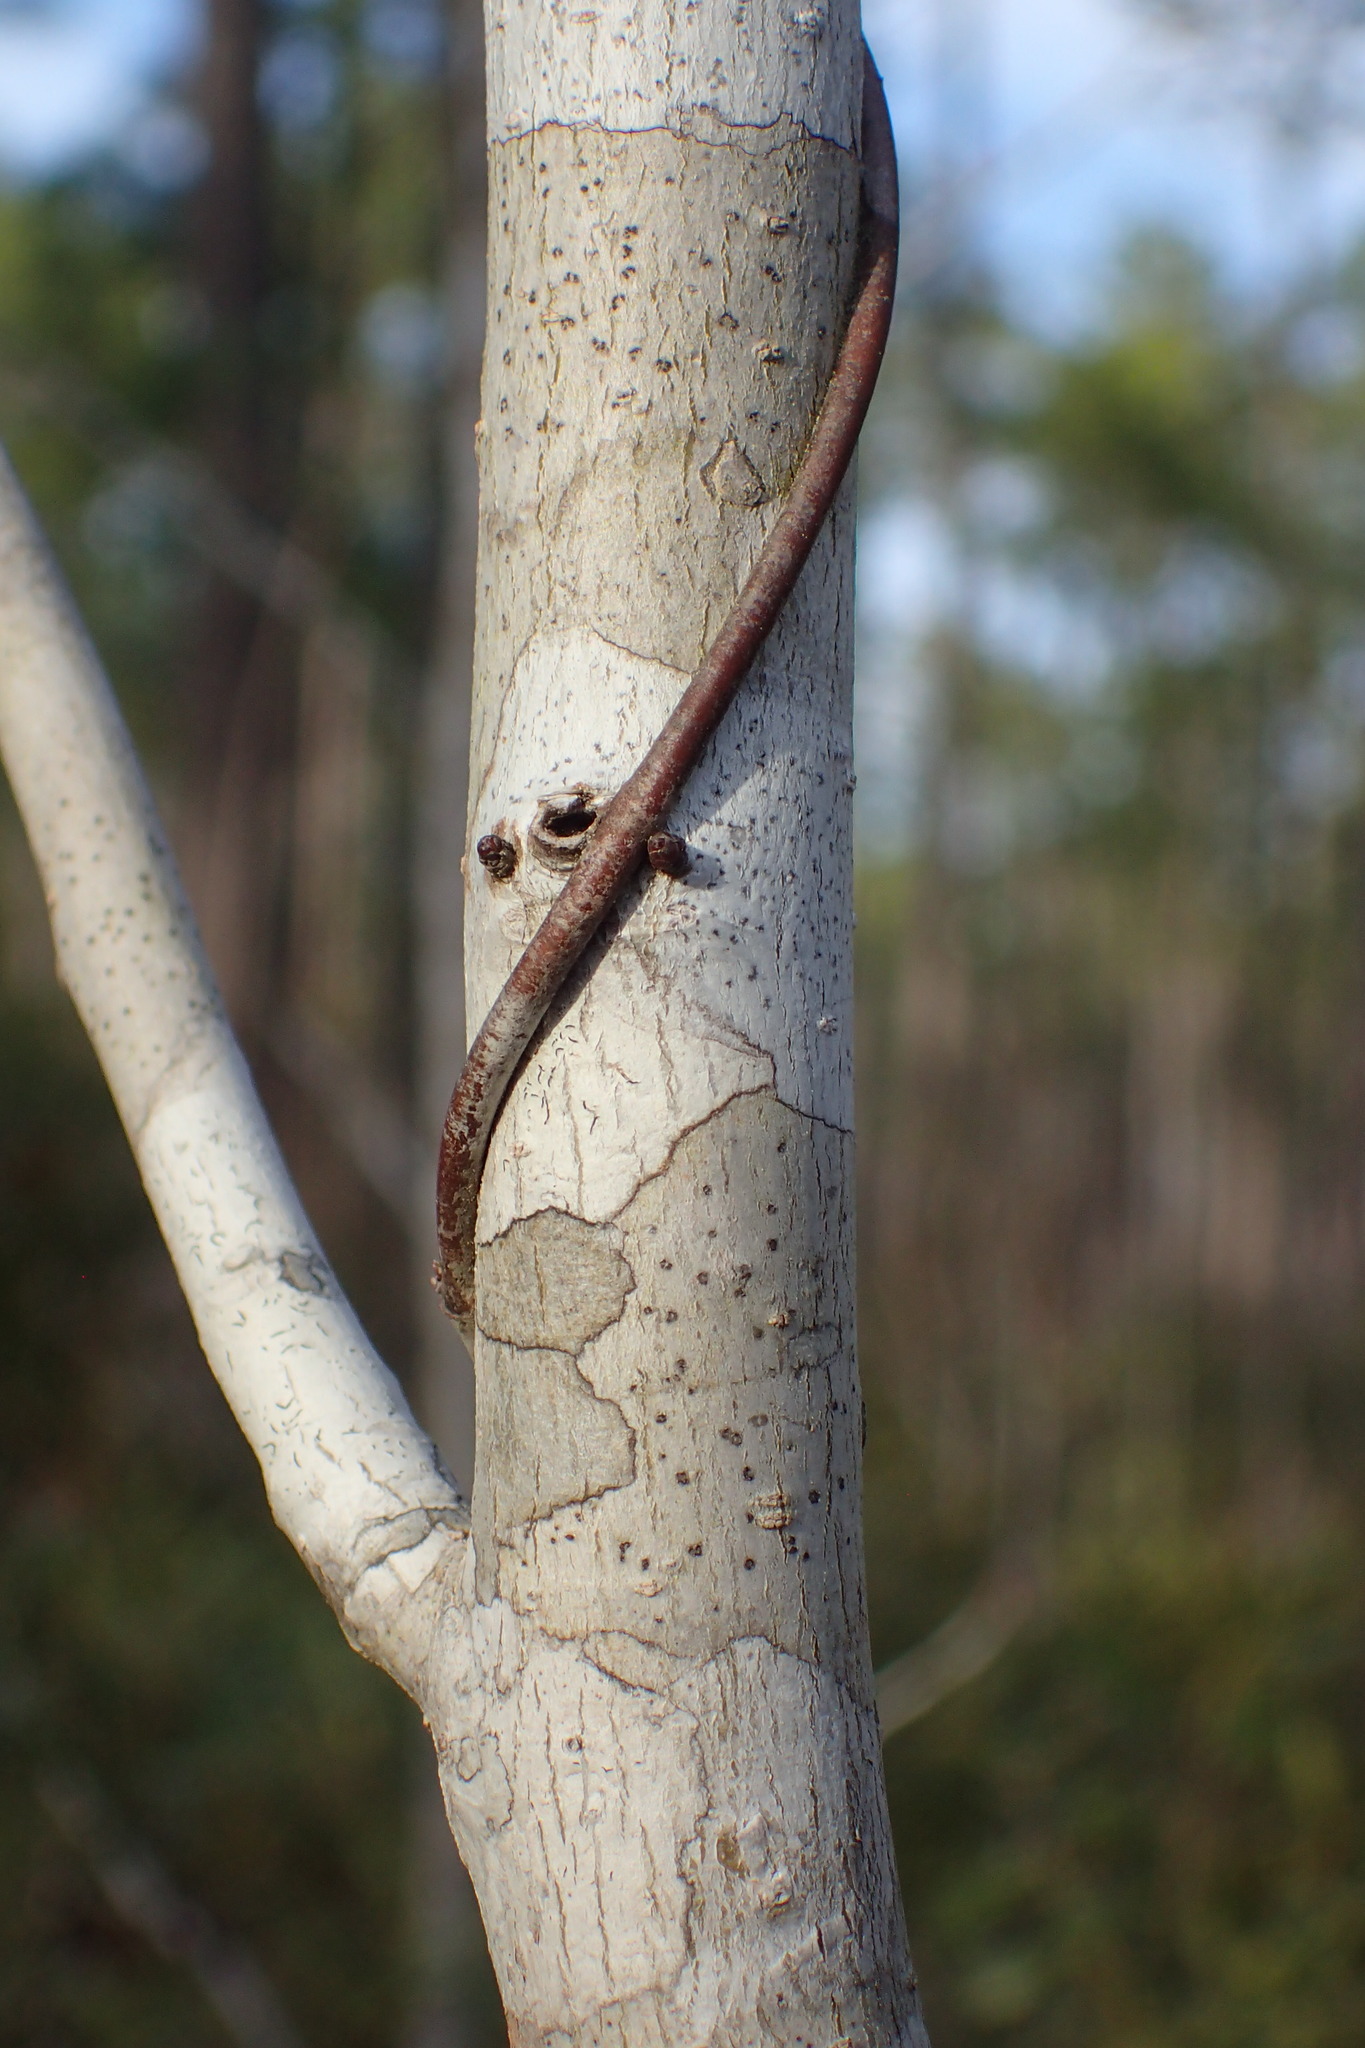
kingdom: Plantae
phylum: Tracheophyta
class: Magnoliopsida
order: Saxifragales
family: Altingiaceae
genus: Liquidambar
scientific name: Liquidambar styraciflua
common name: Sweet gum
